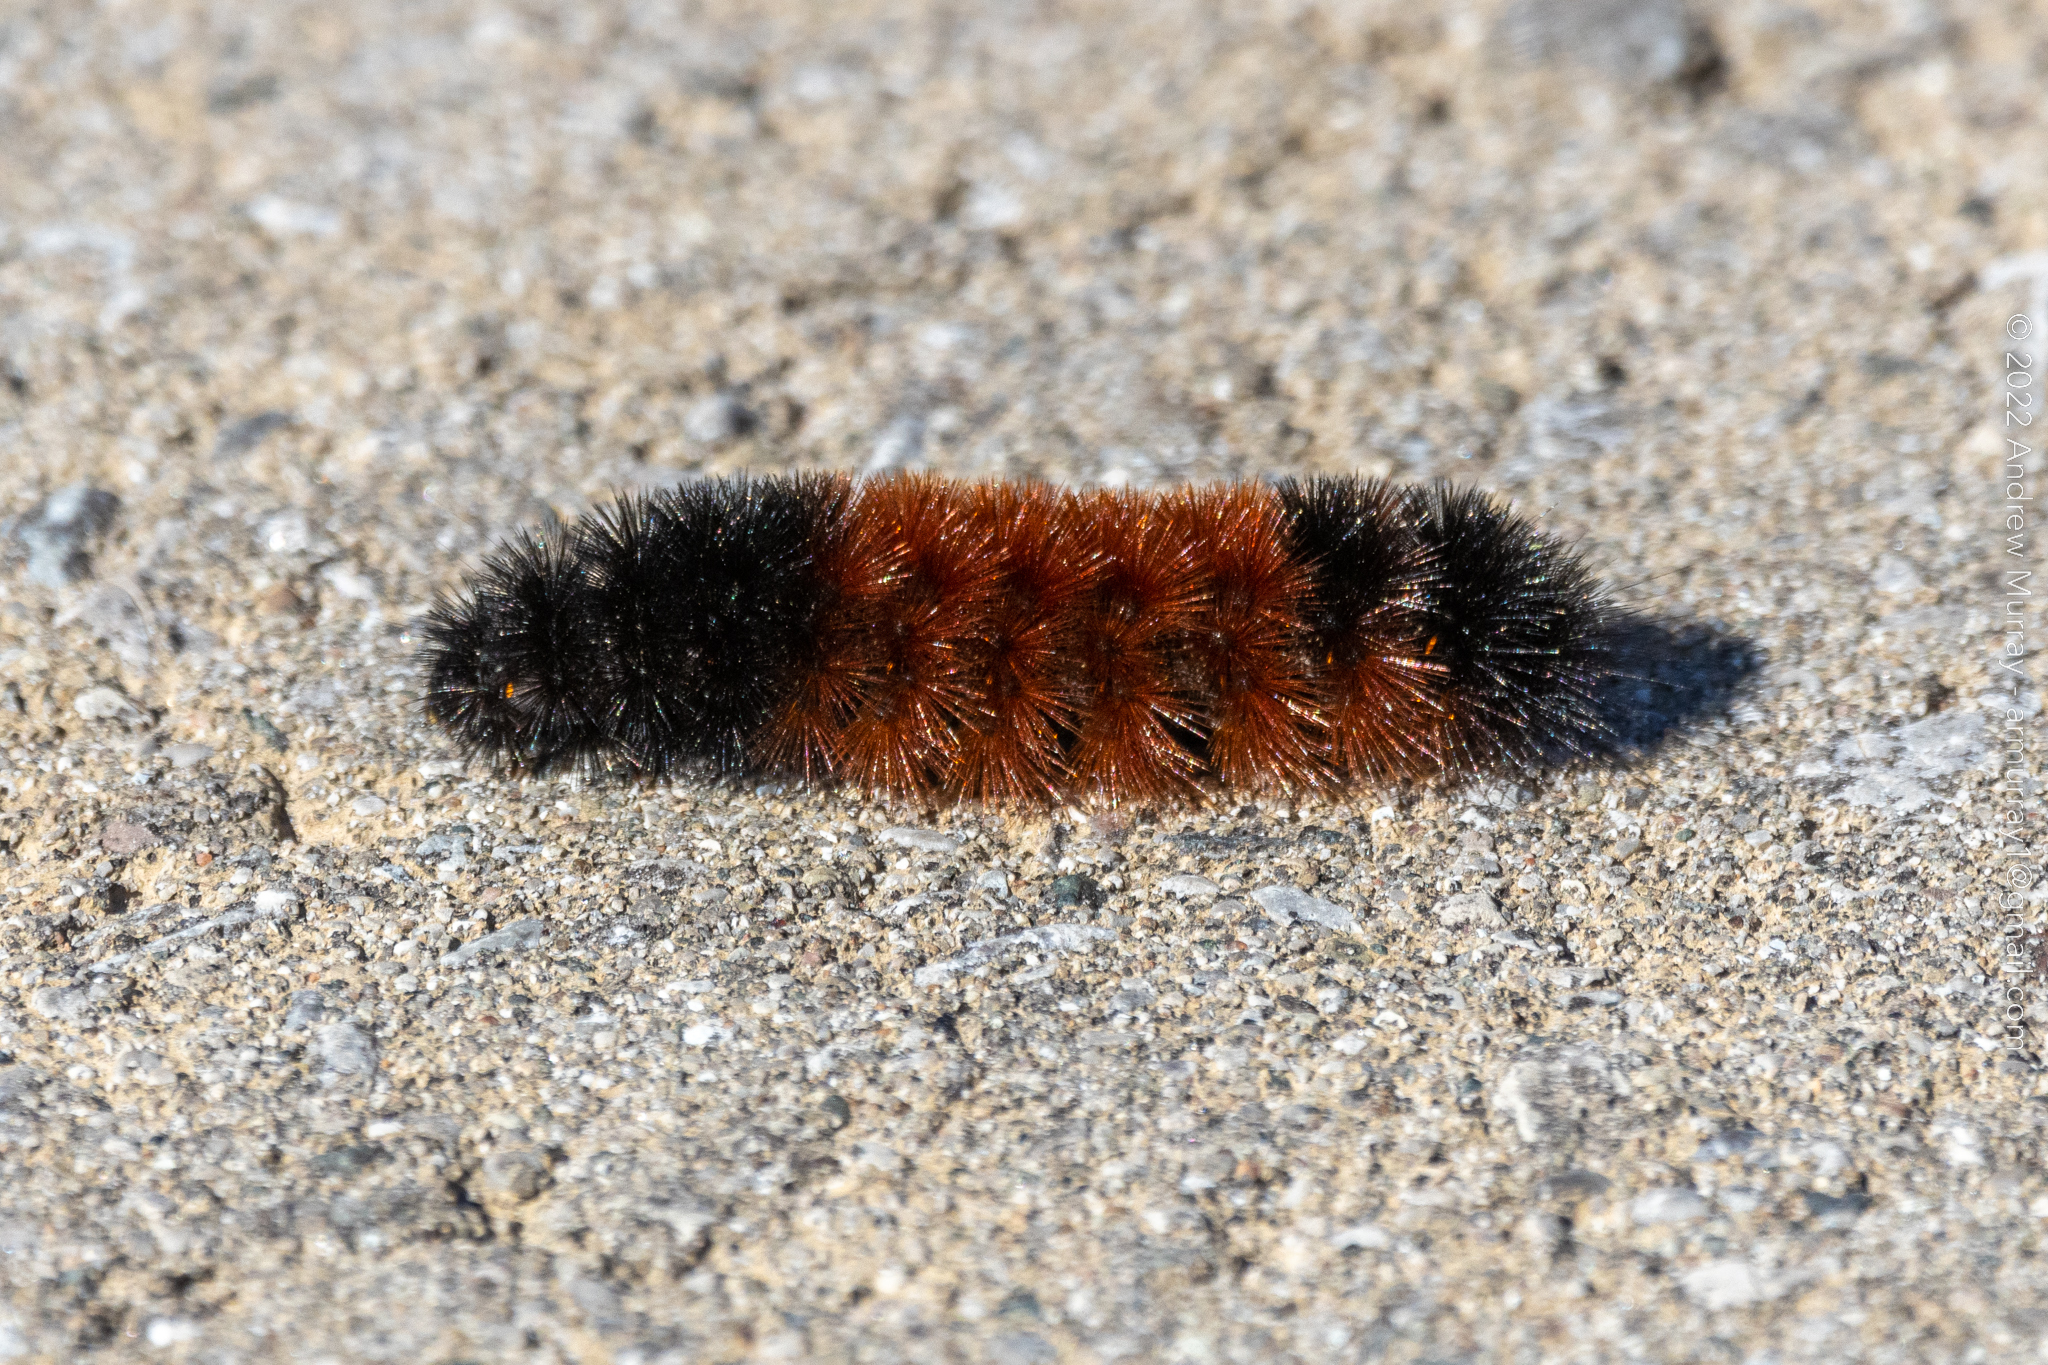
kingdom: Animalia
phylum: Arthropoda
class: Insecta
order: Lepidoptera
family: Erebidae
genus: Pyrrharctia
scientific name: Pyrrharctia isabella
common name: Isabella tiger moth
